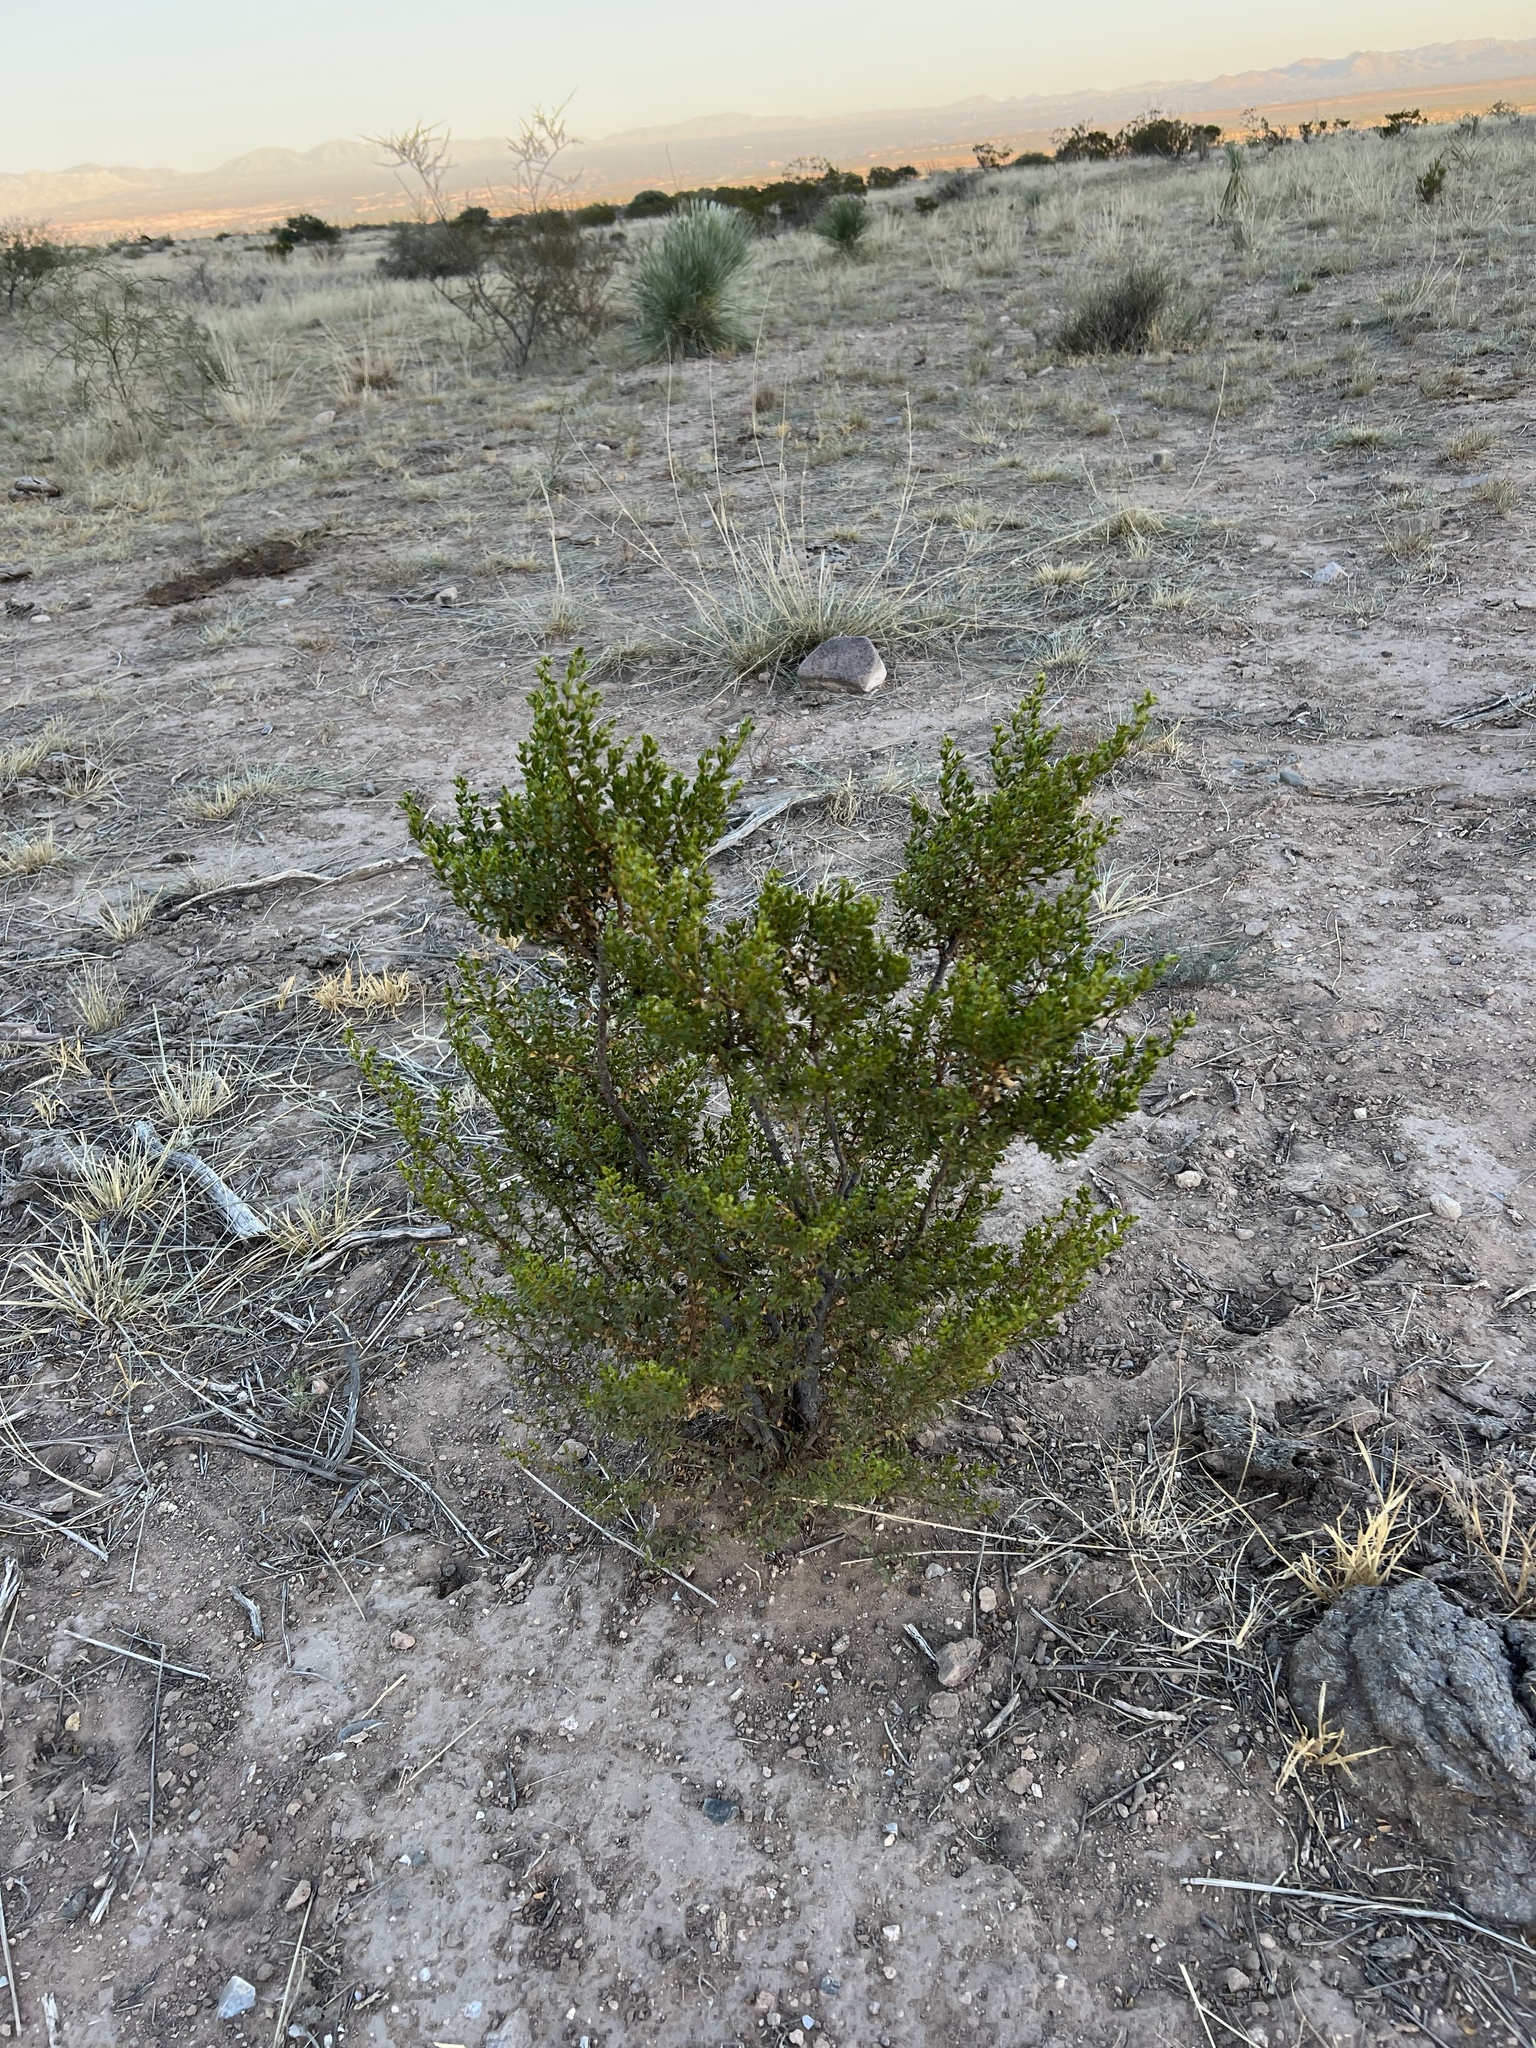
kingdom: Plantae
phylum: Tracheophyta
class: Magnoliopsida
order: Zygophyllales
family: Zygophyllaceae
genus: Larrea
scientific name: Larrea tridentata
